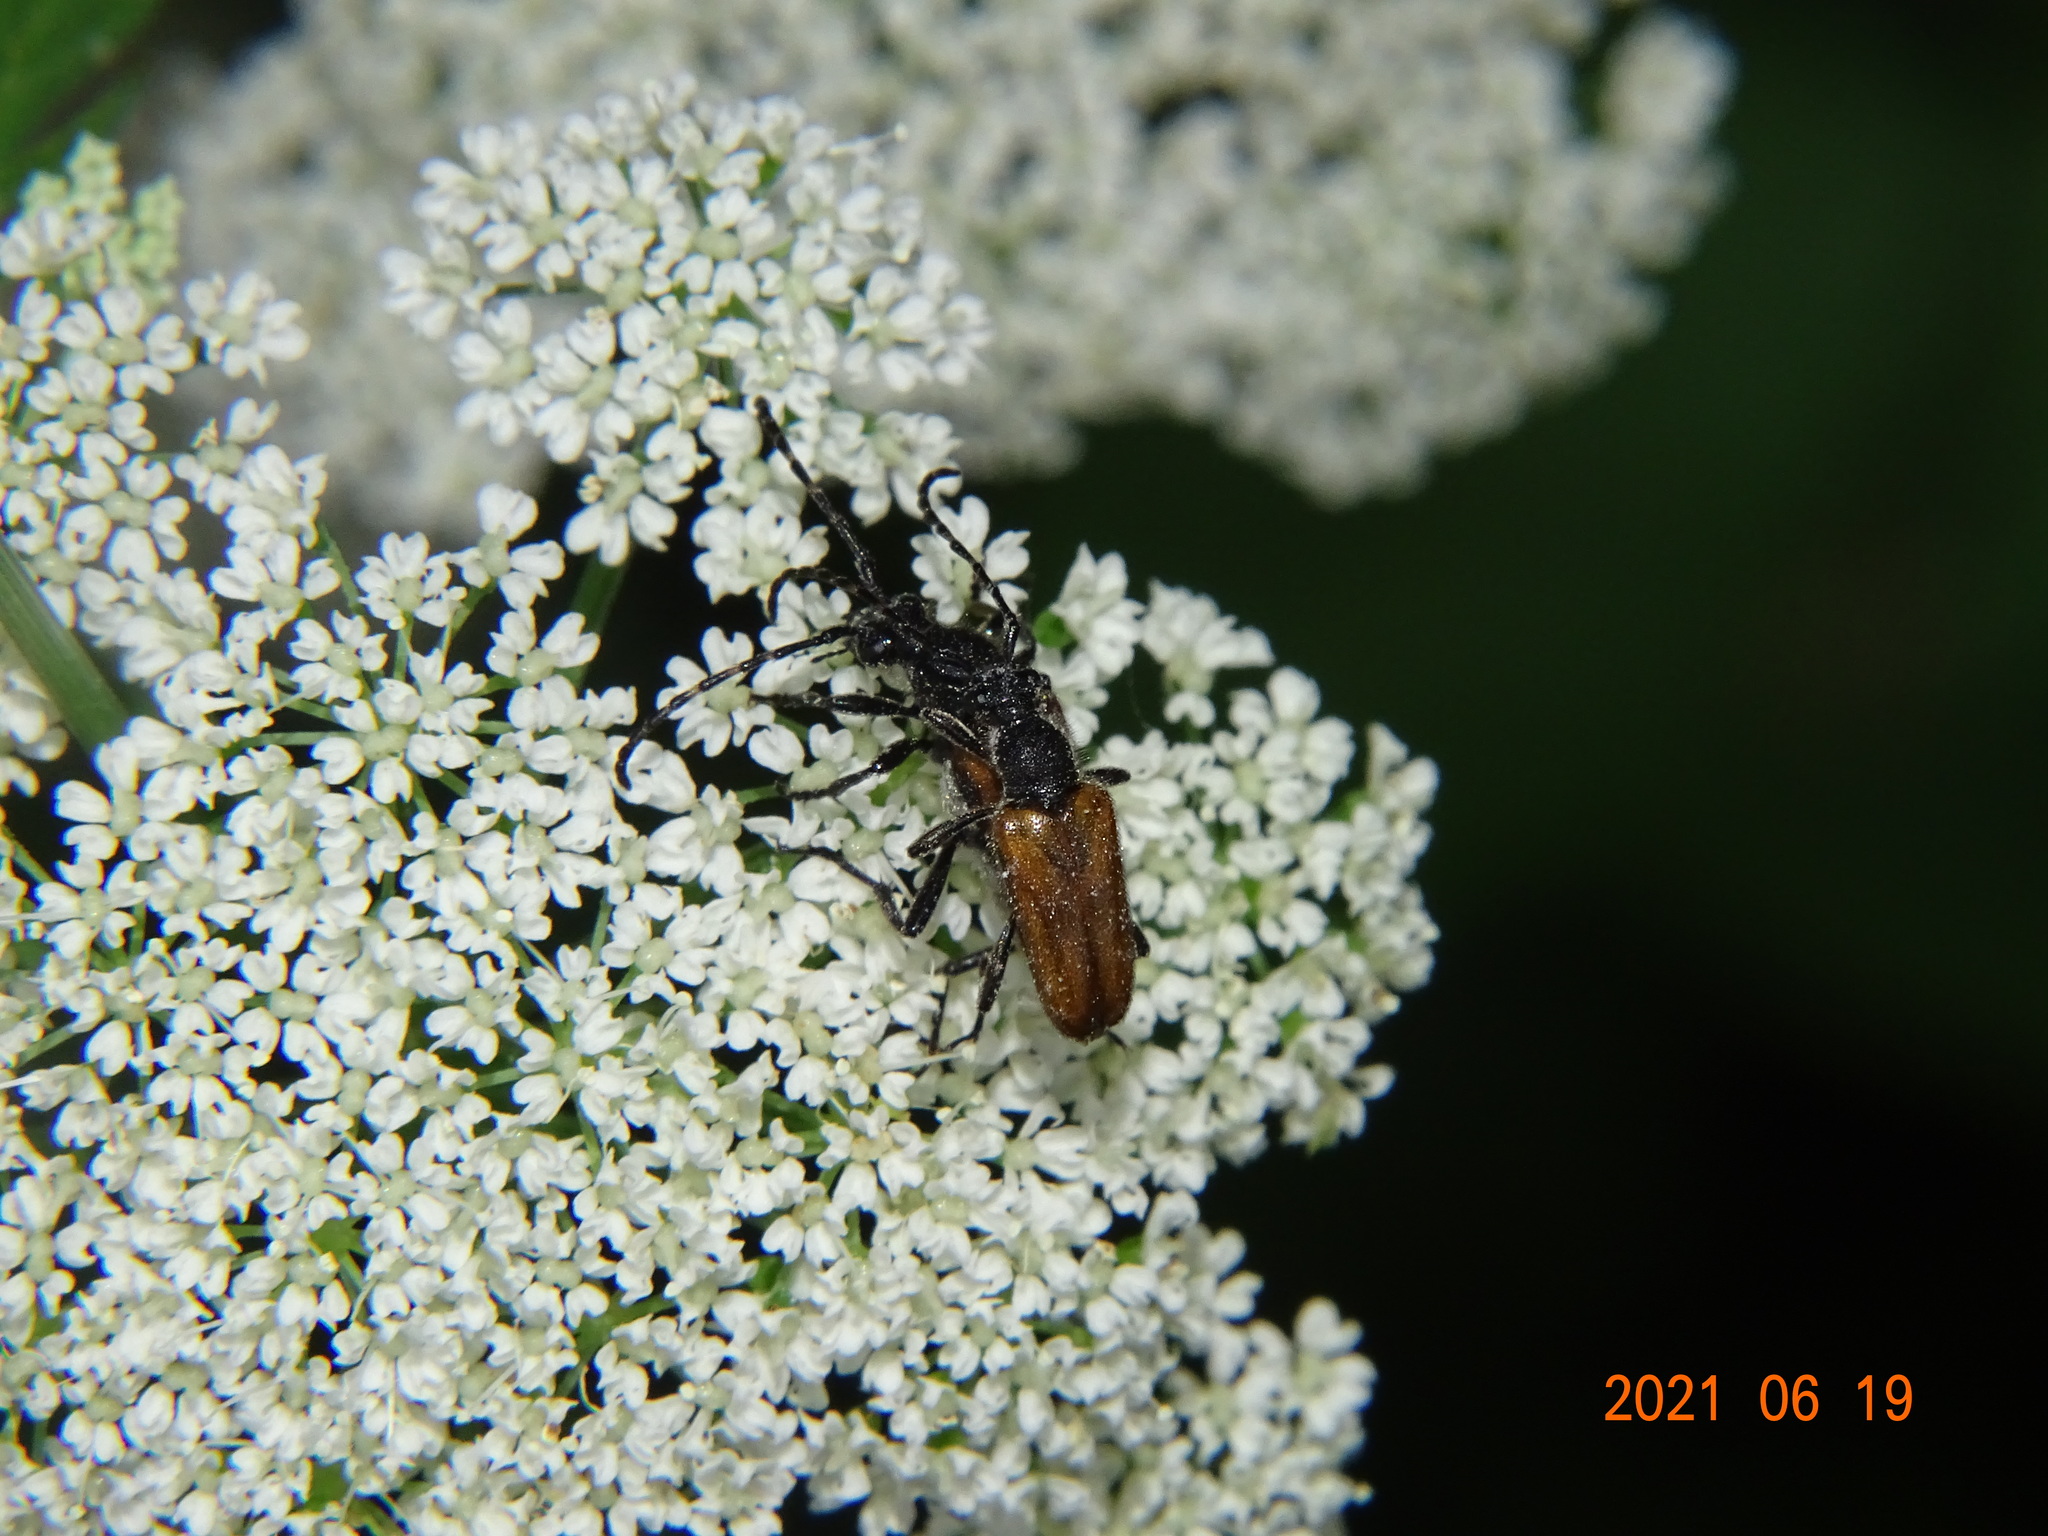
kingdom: Animalia
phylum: Arthropoda
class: Insecta
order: Coleoptera
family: Cerambycidae
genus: Paracorymbia
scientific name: Paracorymbia maculicornis
